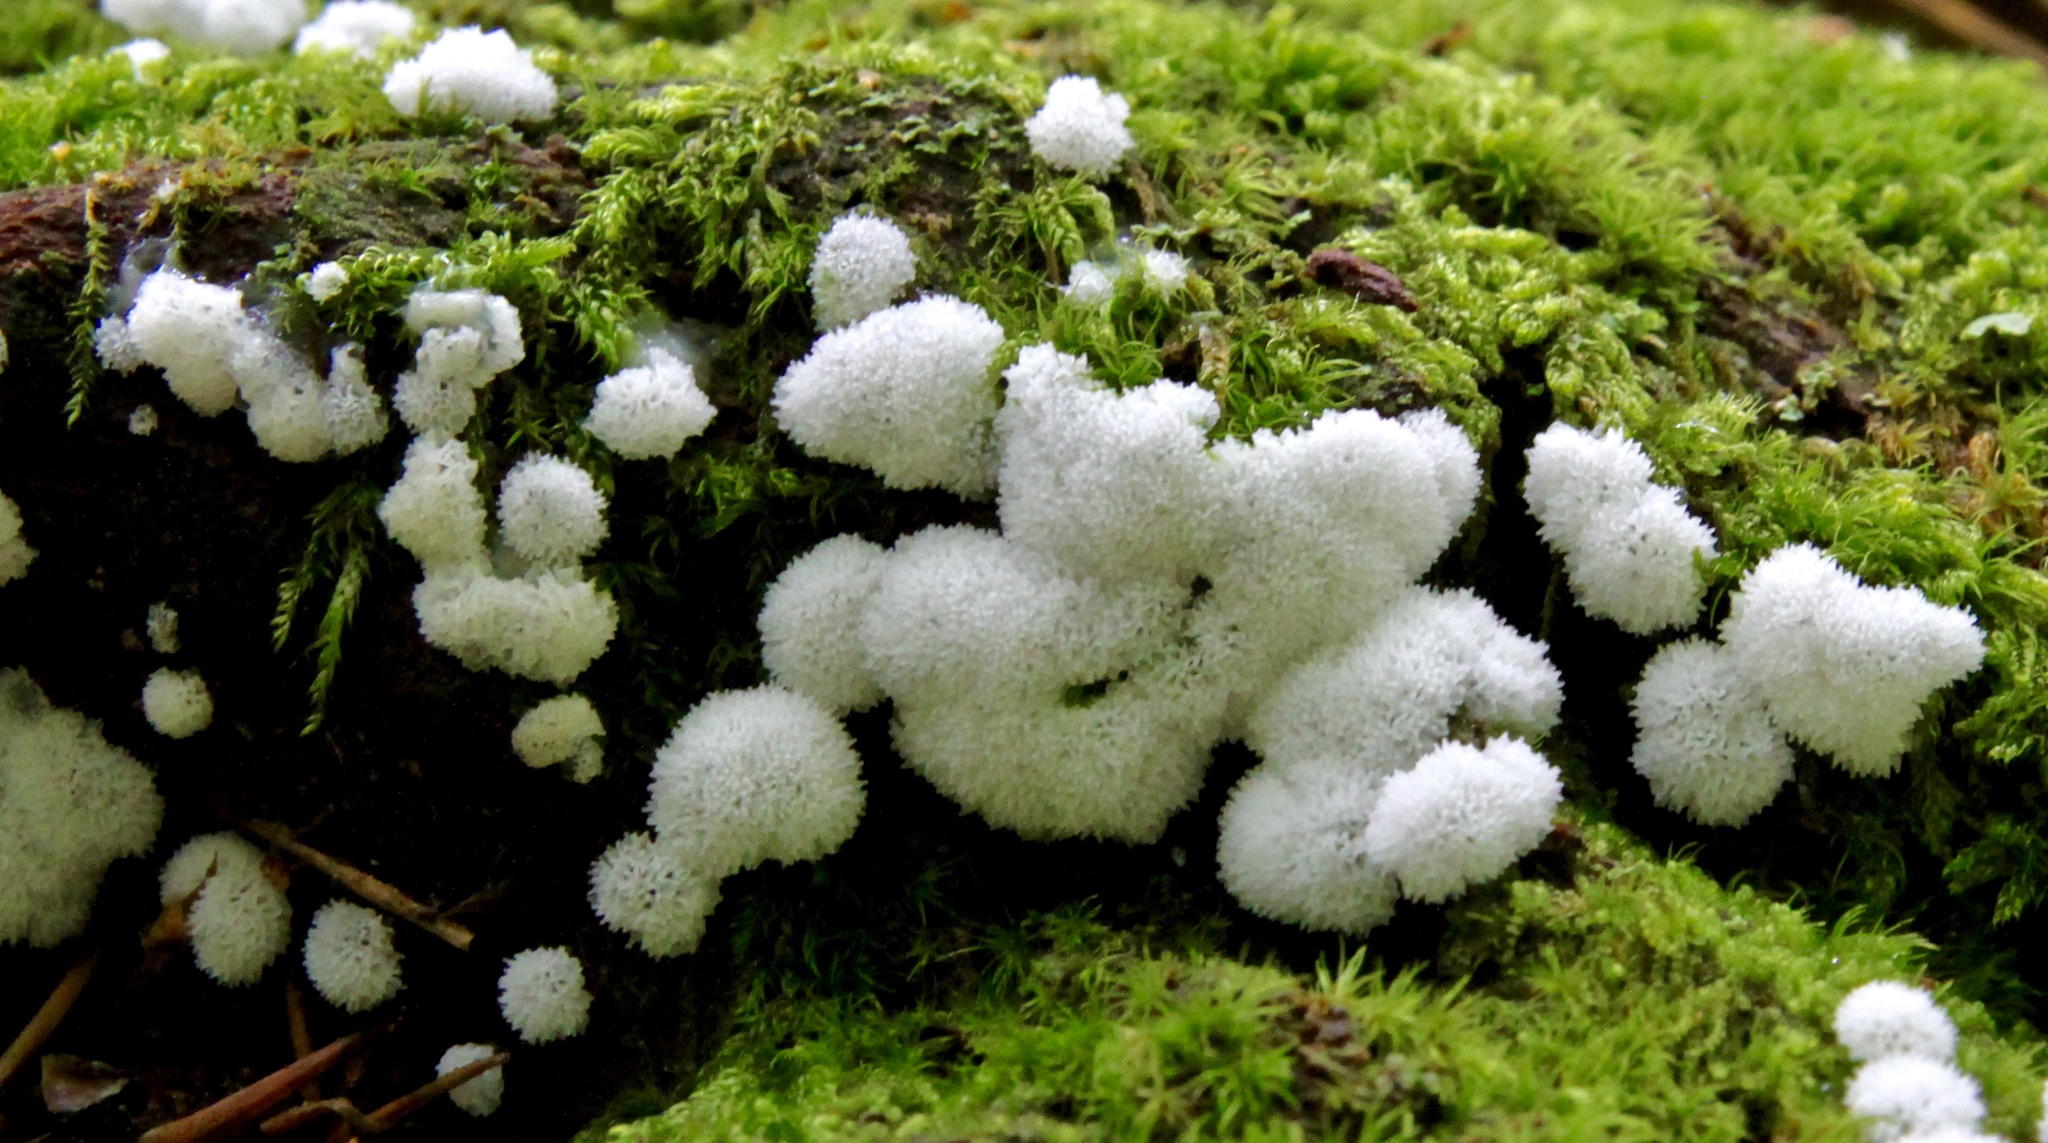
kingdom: Protozoa
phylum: Mycetozoa
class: Protosteliomycetes
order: Ceratiomyxales
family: Ceratiomyxaceae
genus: Ceratiomyxa
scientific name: Ceratiomyxa fruticulosa
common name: Honeycomb coral slime mold
